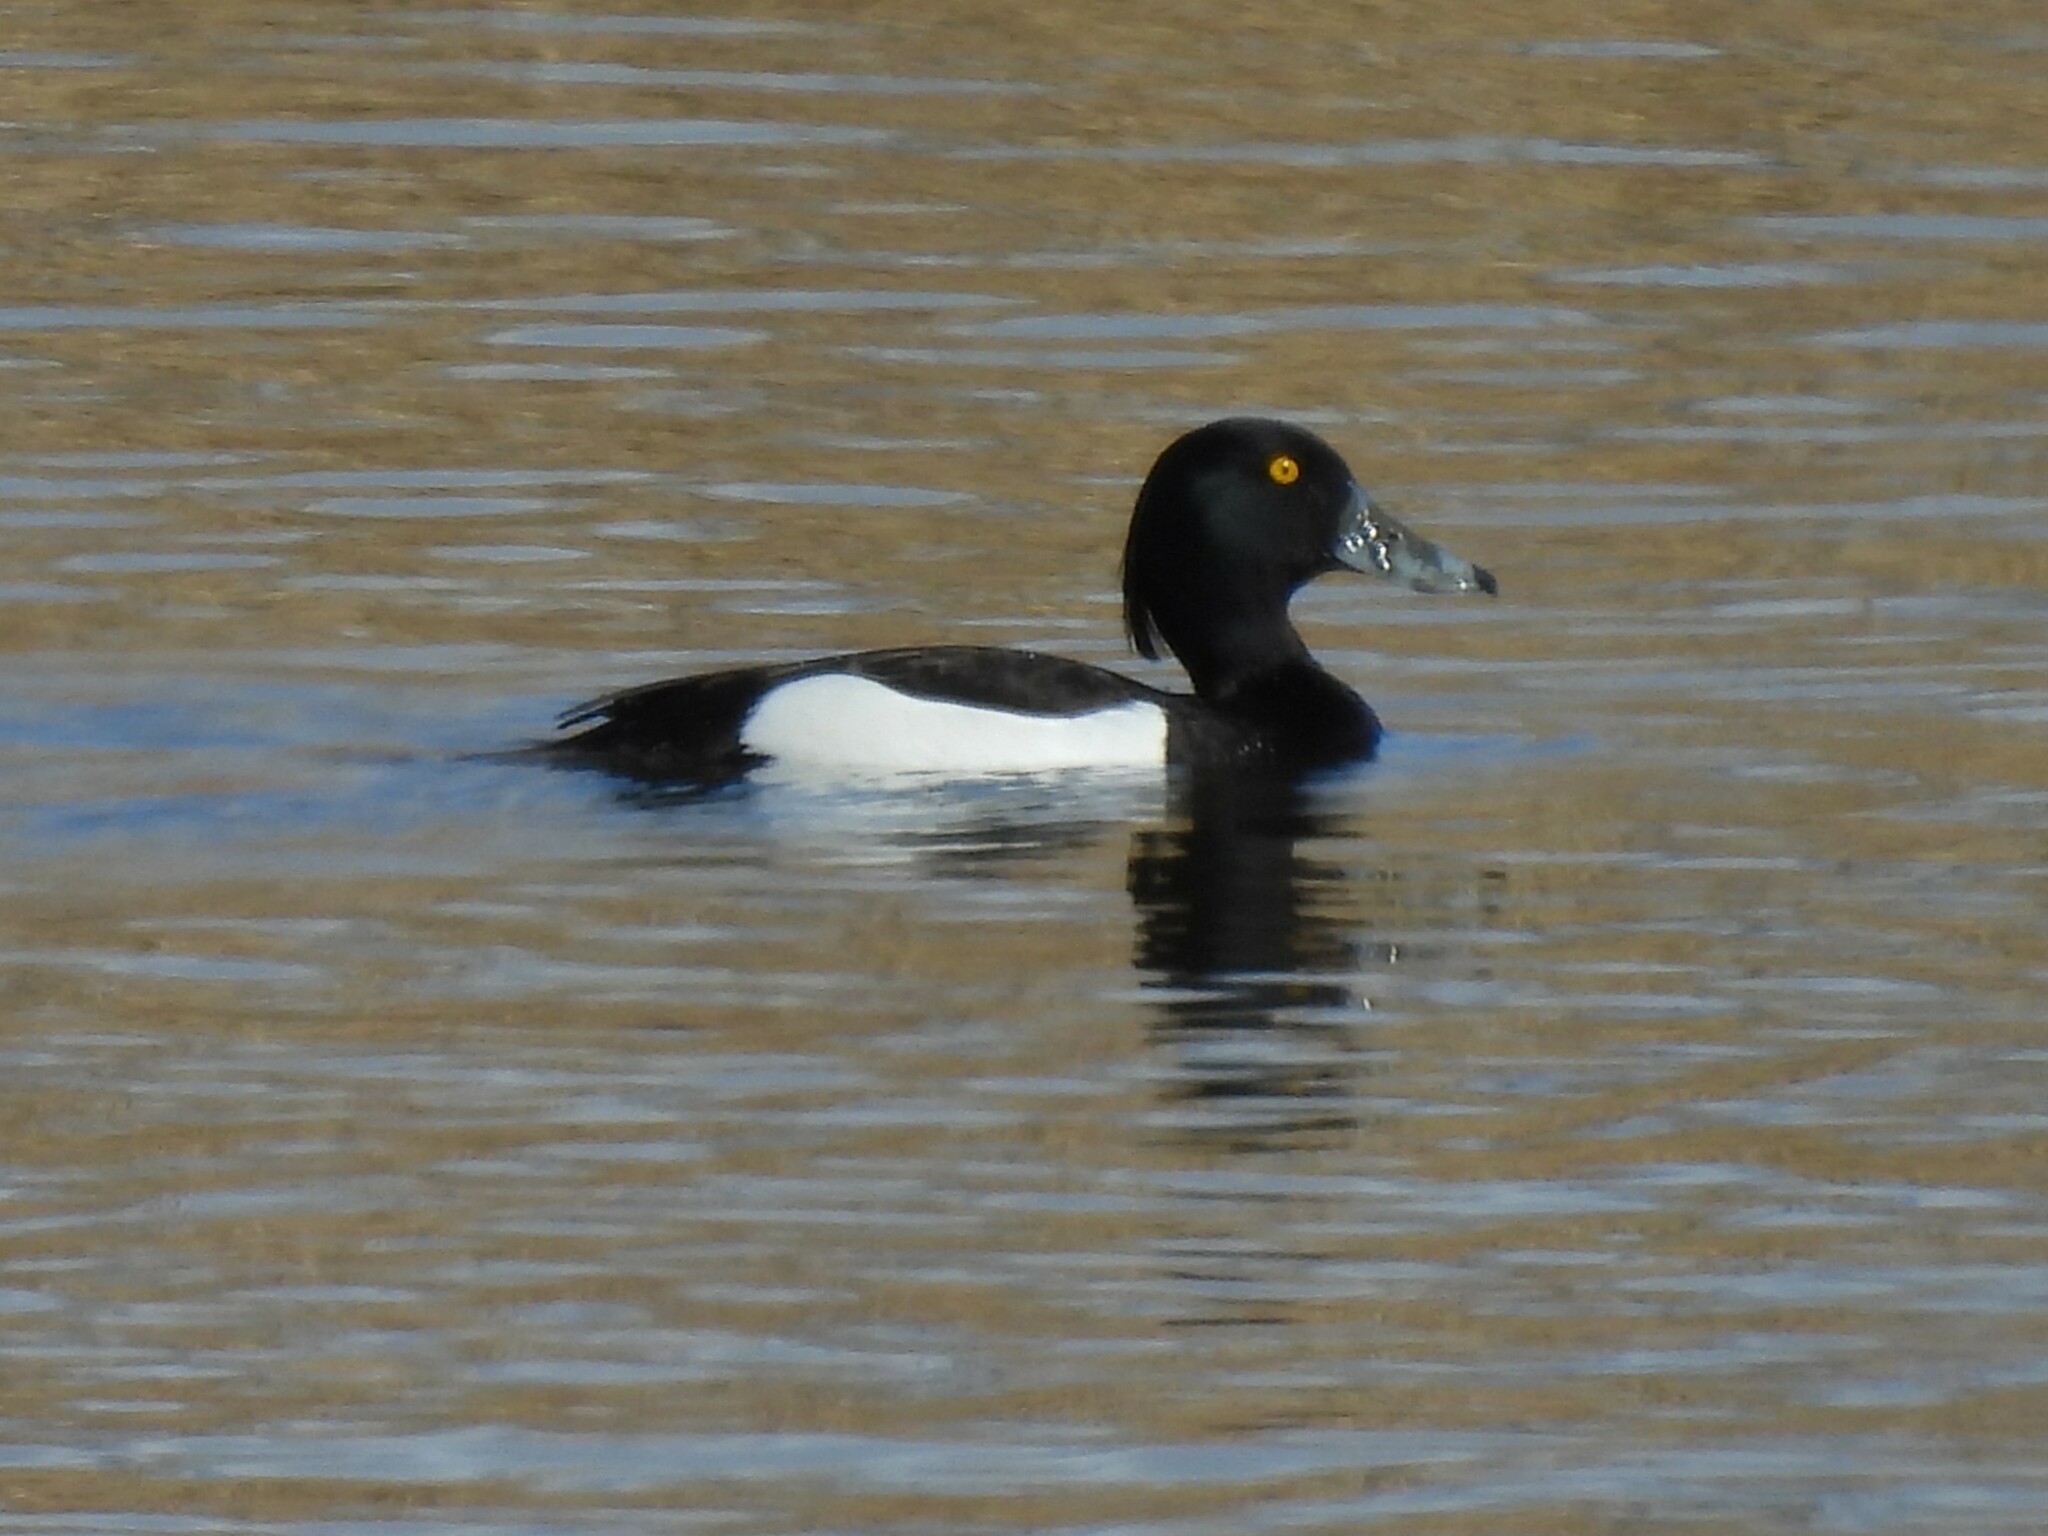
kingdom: Animalia
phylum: Chordata
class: Aves
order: Anseriformes
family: Anatidae
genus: Aythya
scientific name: Aythya fuligula
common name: Tufted duck
